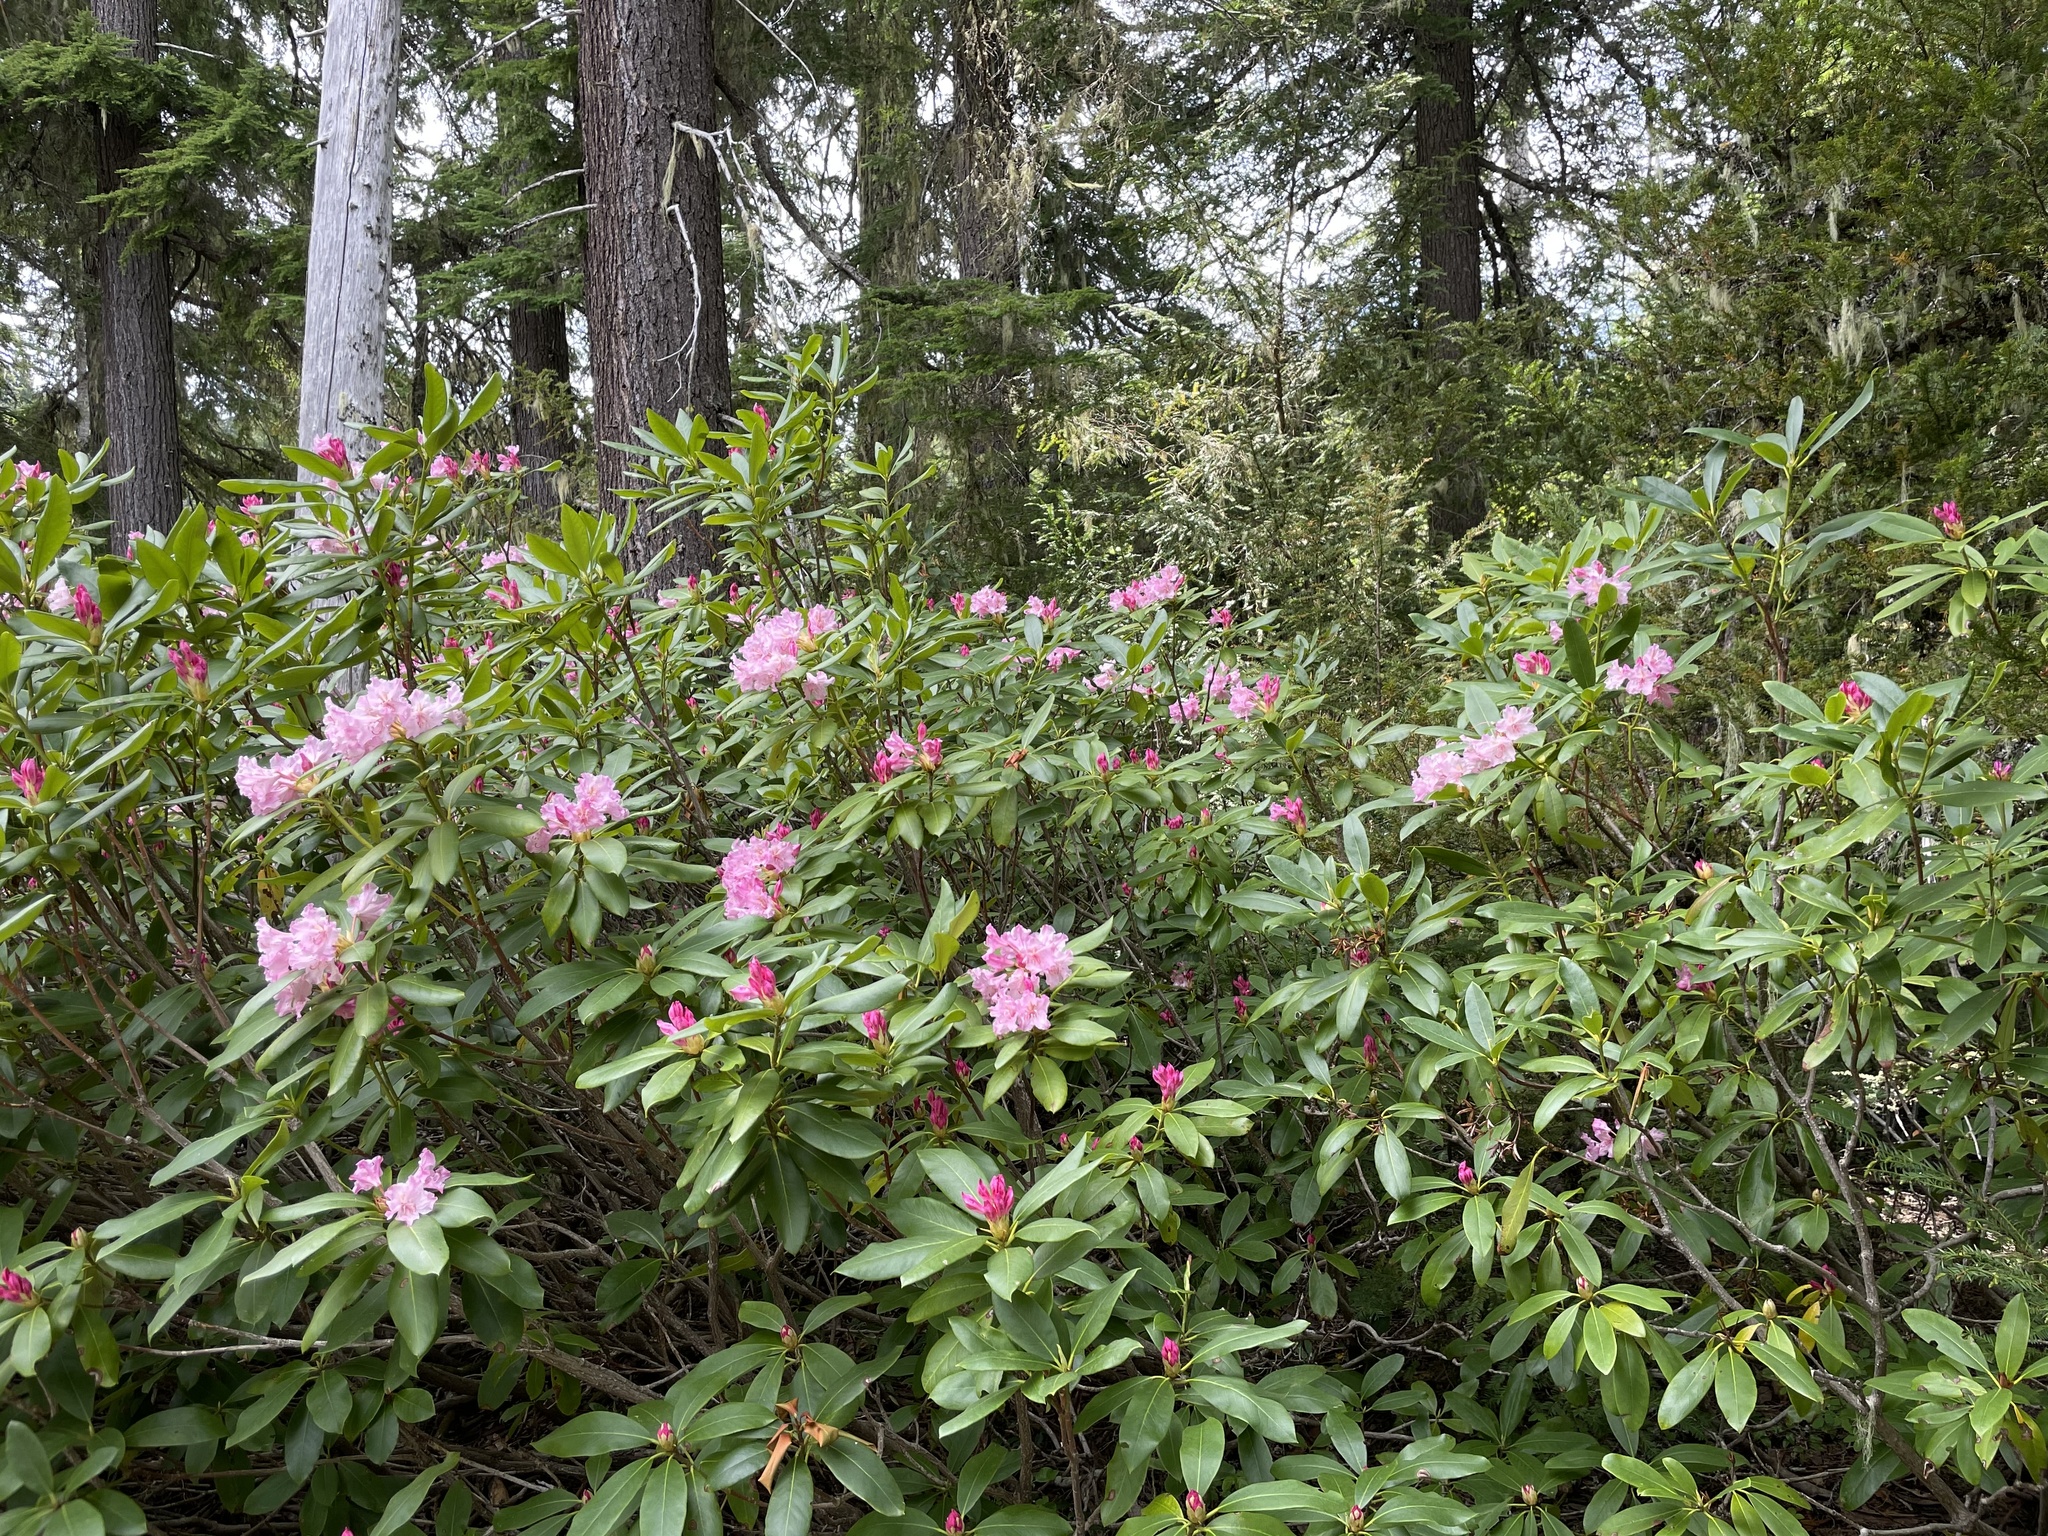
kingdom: Plantae
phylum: Tracheophyta
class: Magnoliopsida
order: Ericales
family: Ericaceae
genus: Rhododendron
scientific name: Rhododendron macrophyllum
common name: California rose bay
